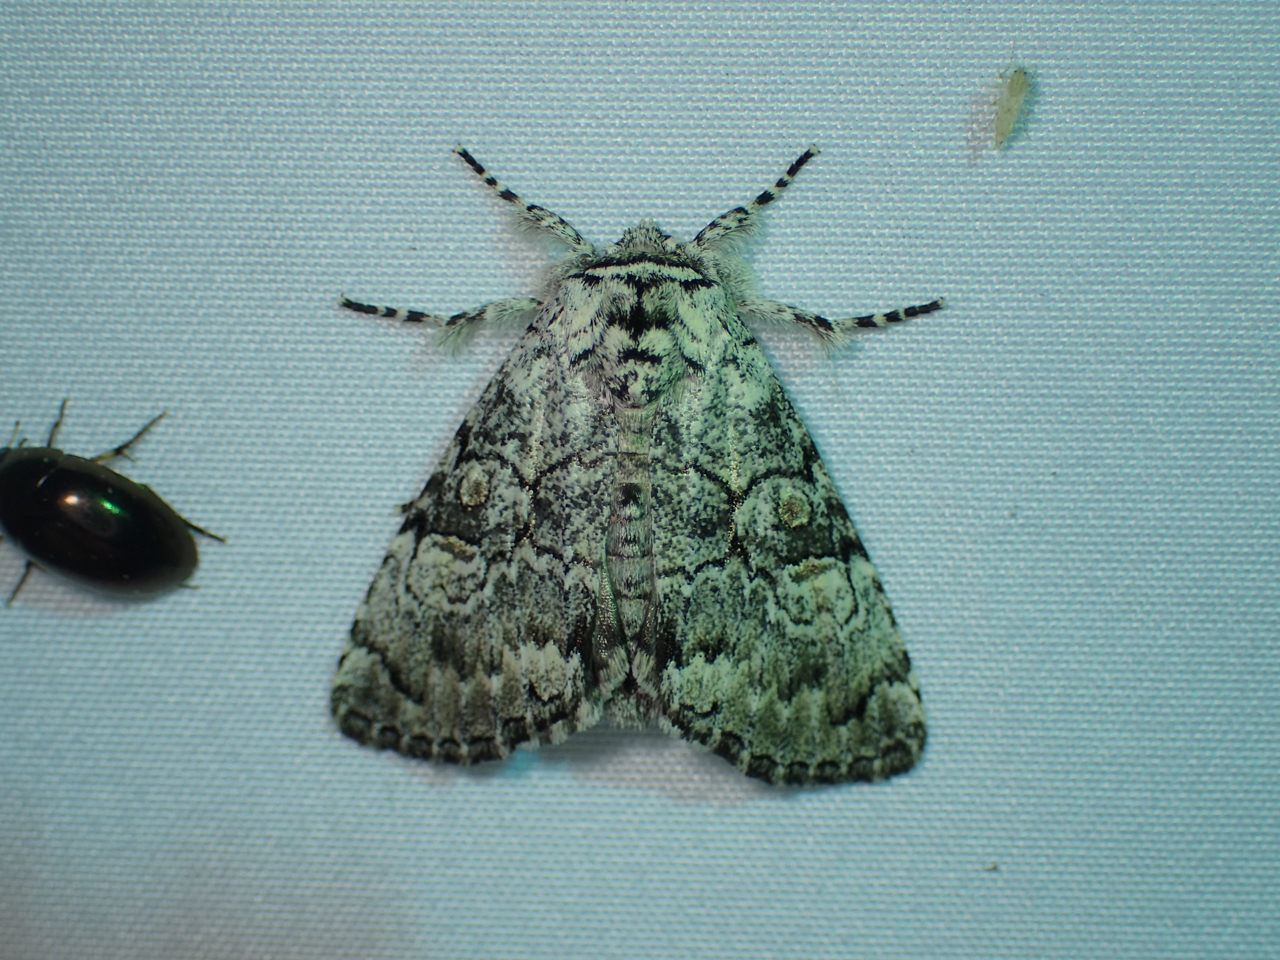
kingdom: Animalia
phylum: Arthropoda
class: Insecta
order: Lepidoptera
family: Noctuidae
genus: Charadra
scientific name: Charadra deridens
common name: Marbled tuffet
